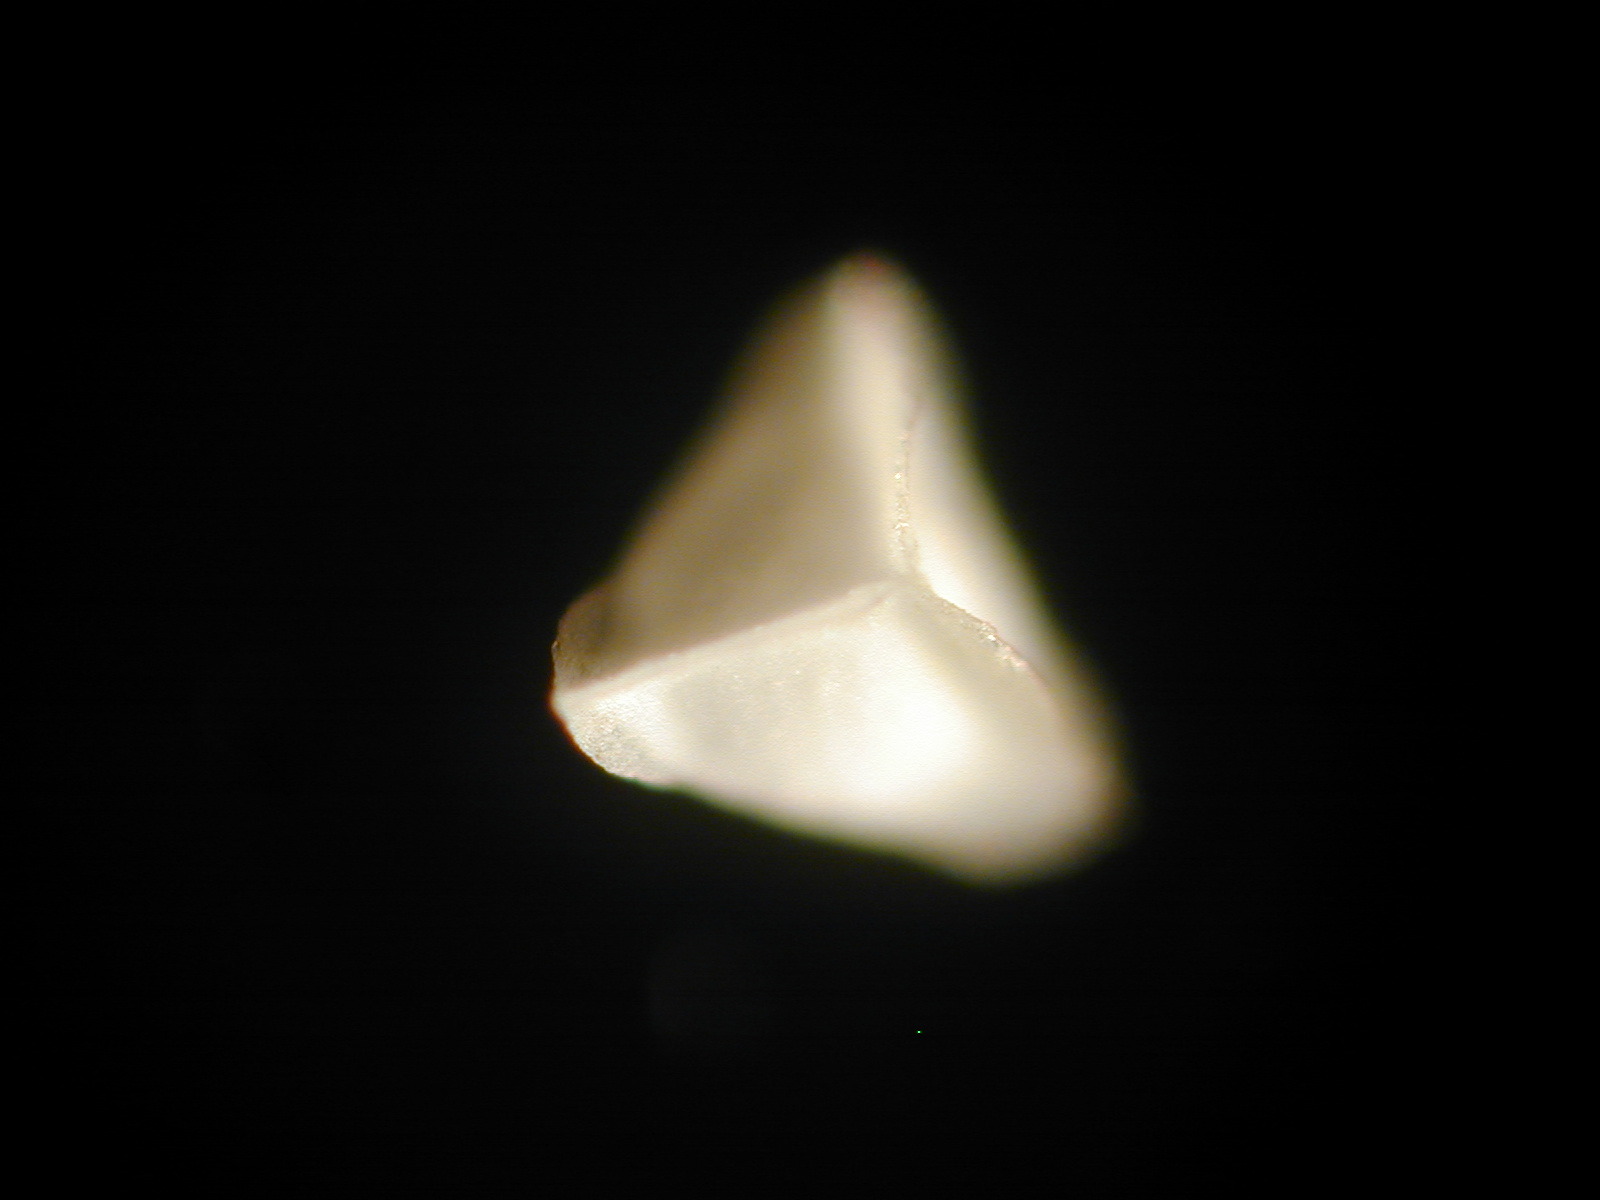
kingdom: Plantae
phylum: Tracheophyta
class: Lycopodiopsida
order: Isoetales
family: Isoetaceae
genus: Isoetes
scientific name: Isoetes longissima
